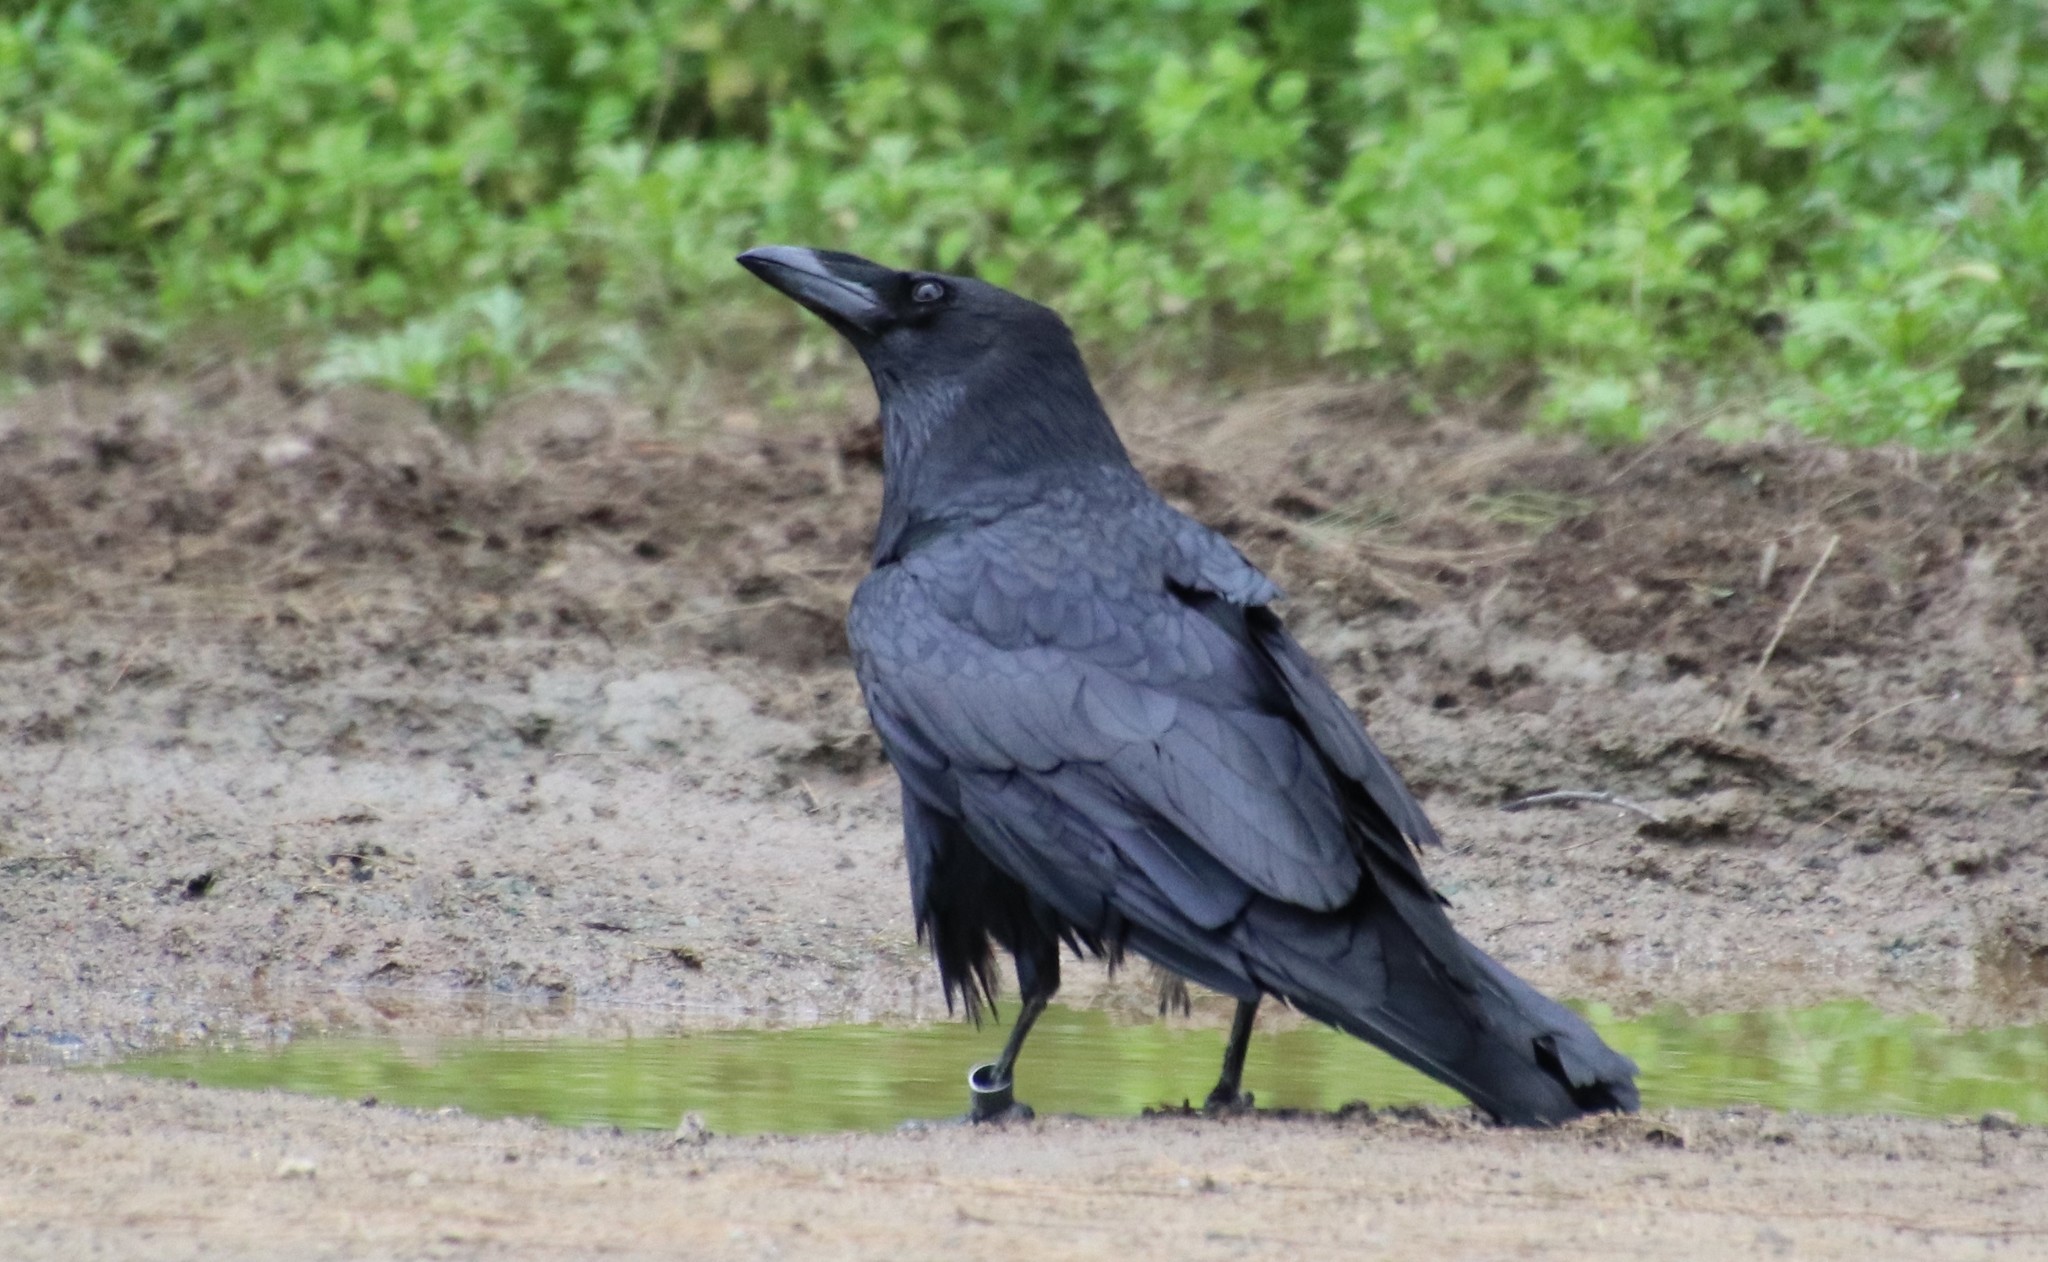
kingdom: Animalia
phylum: Chordata
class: Aves
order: Passeriformes
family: Corvidae
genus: Corvus
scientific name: Corvus corax
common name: Common raven
